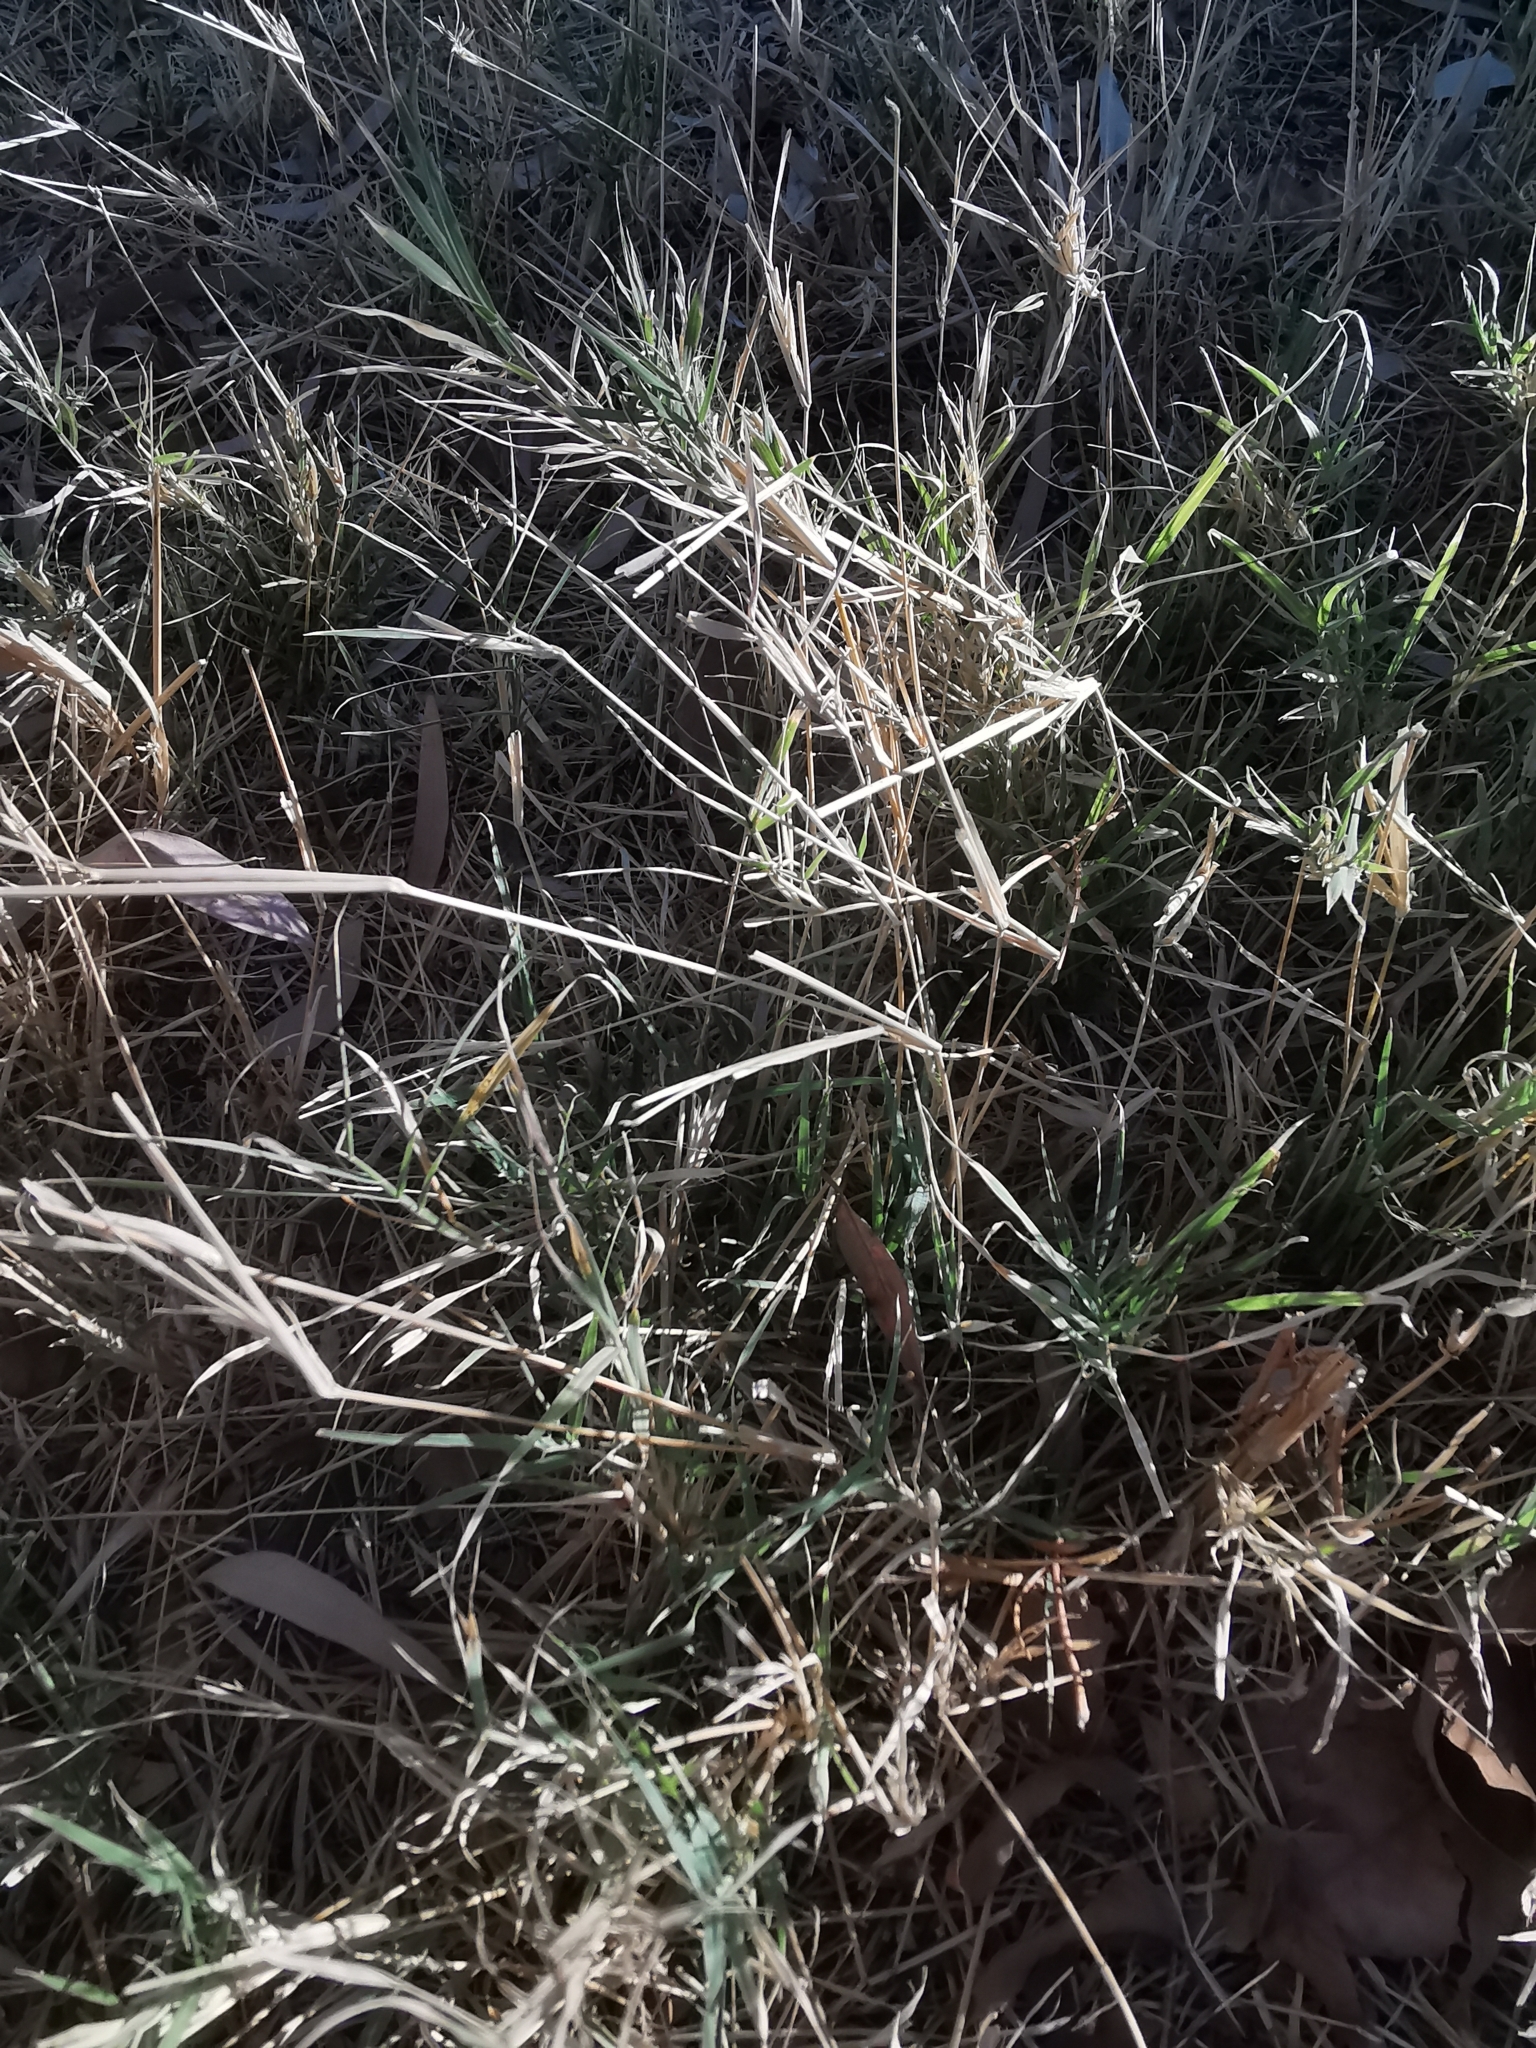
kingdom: Plantae
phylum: Tracheophyta
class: Liliopsida
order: Poales
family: Poaceae
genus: Cynodon
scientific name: Cynodon dactylon
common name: Bermuda grass
